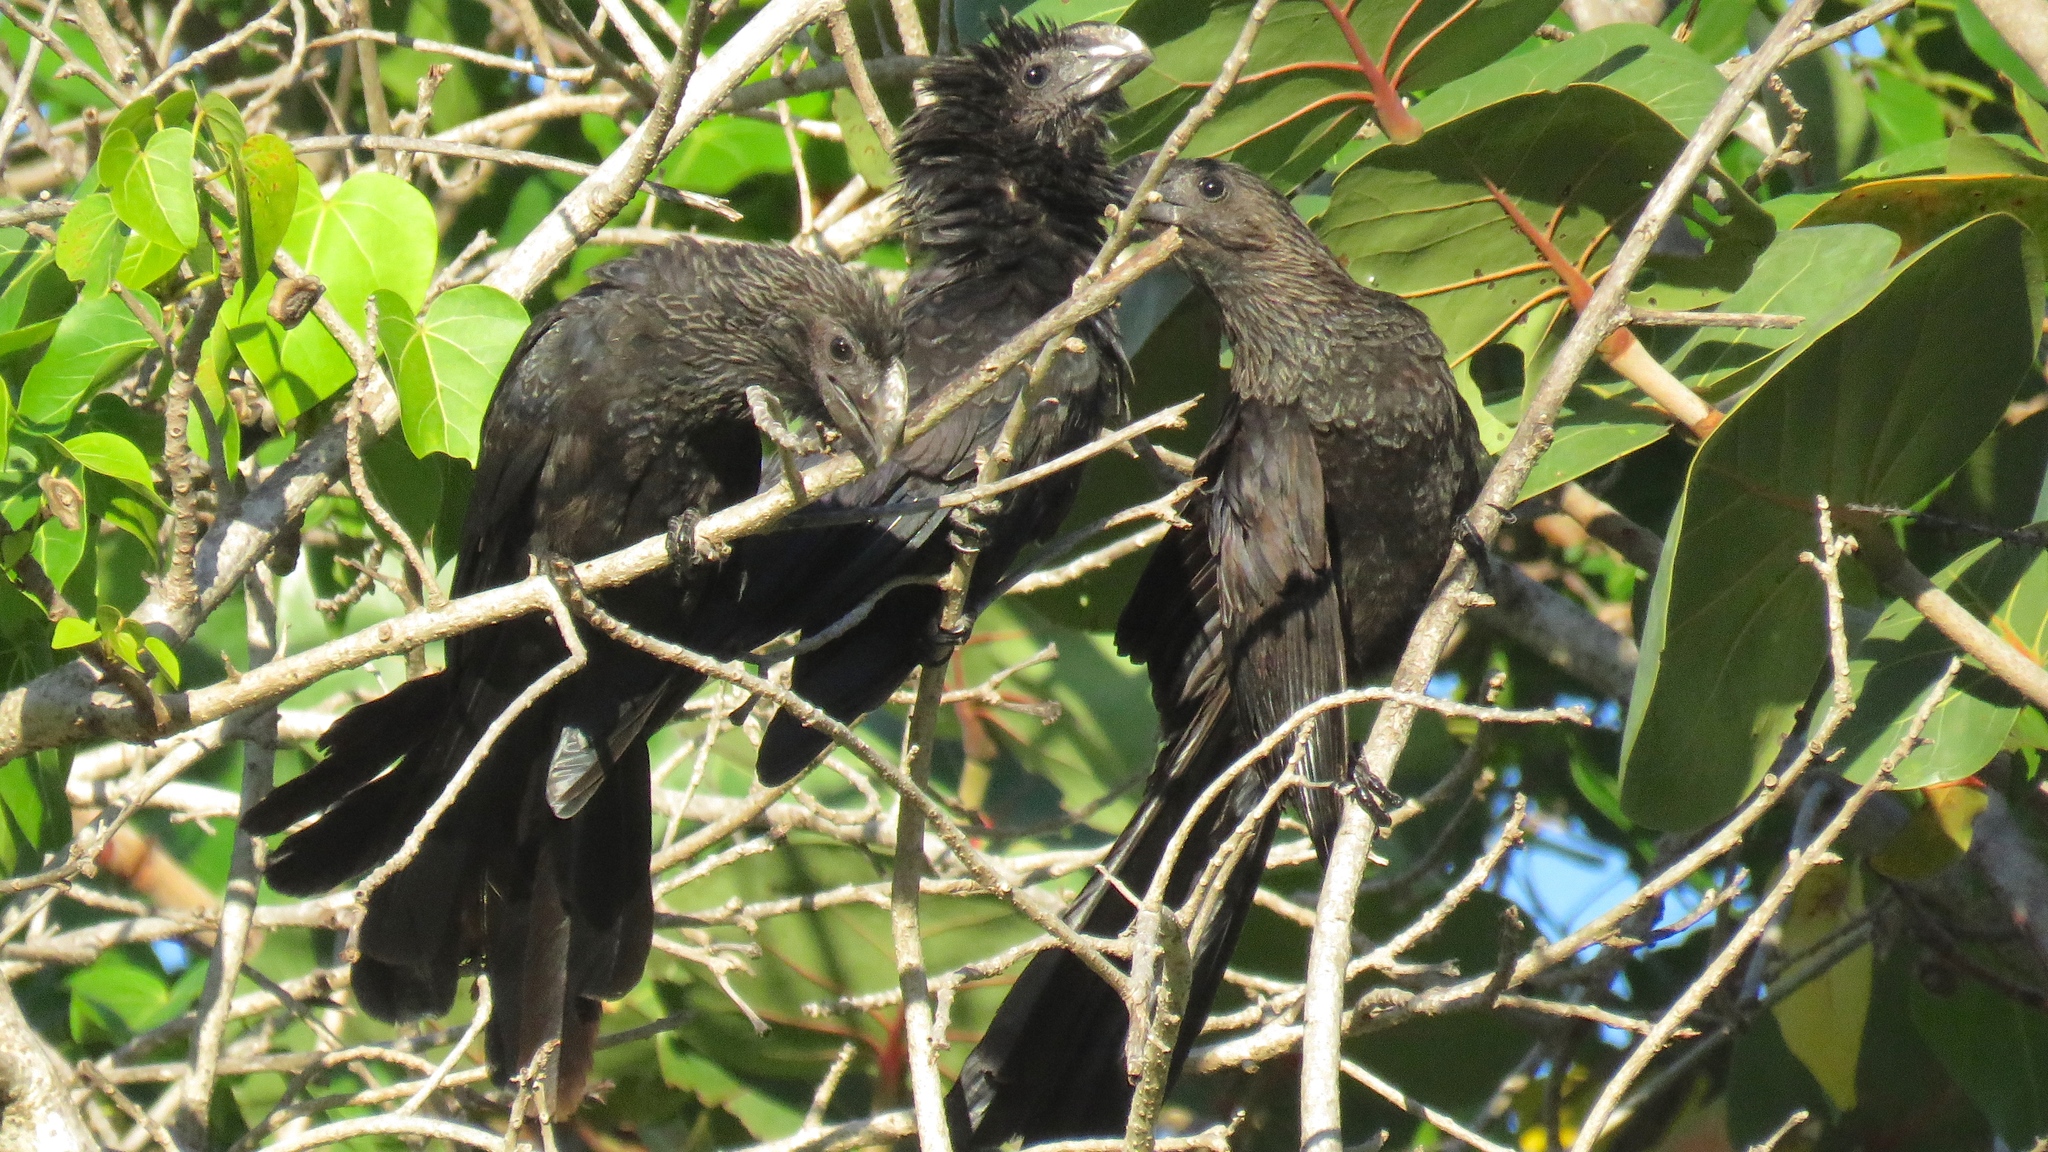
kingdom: Animalia
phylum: Chordata
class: Aves
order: Cuculiformes
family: Cuculidae
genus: Crotophaga
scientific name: Crotophaga ani
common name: Smooth-billed ani
